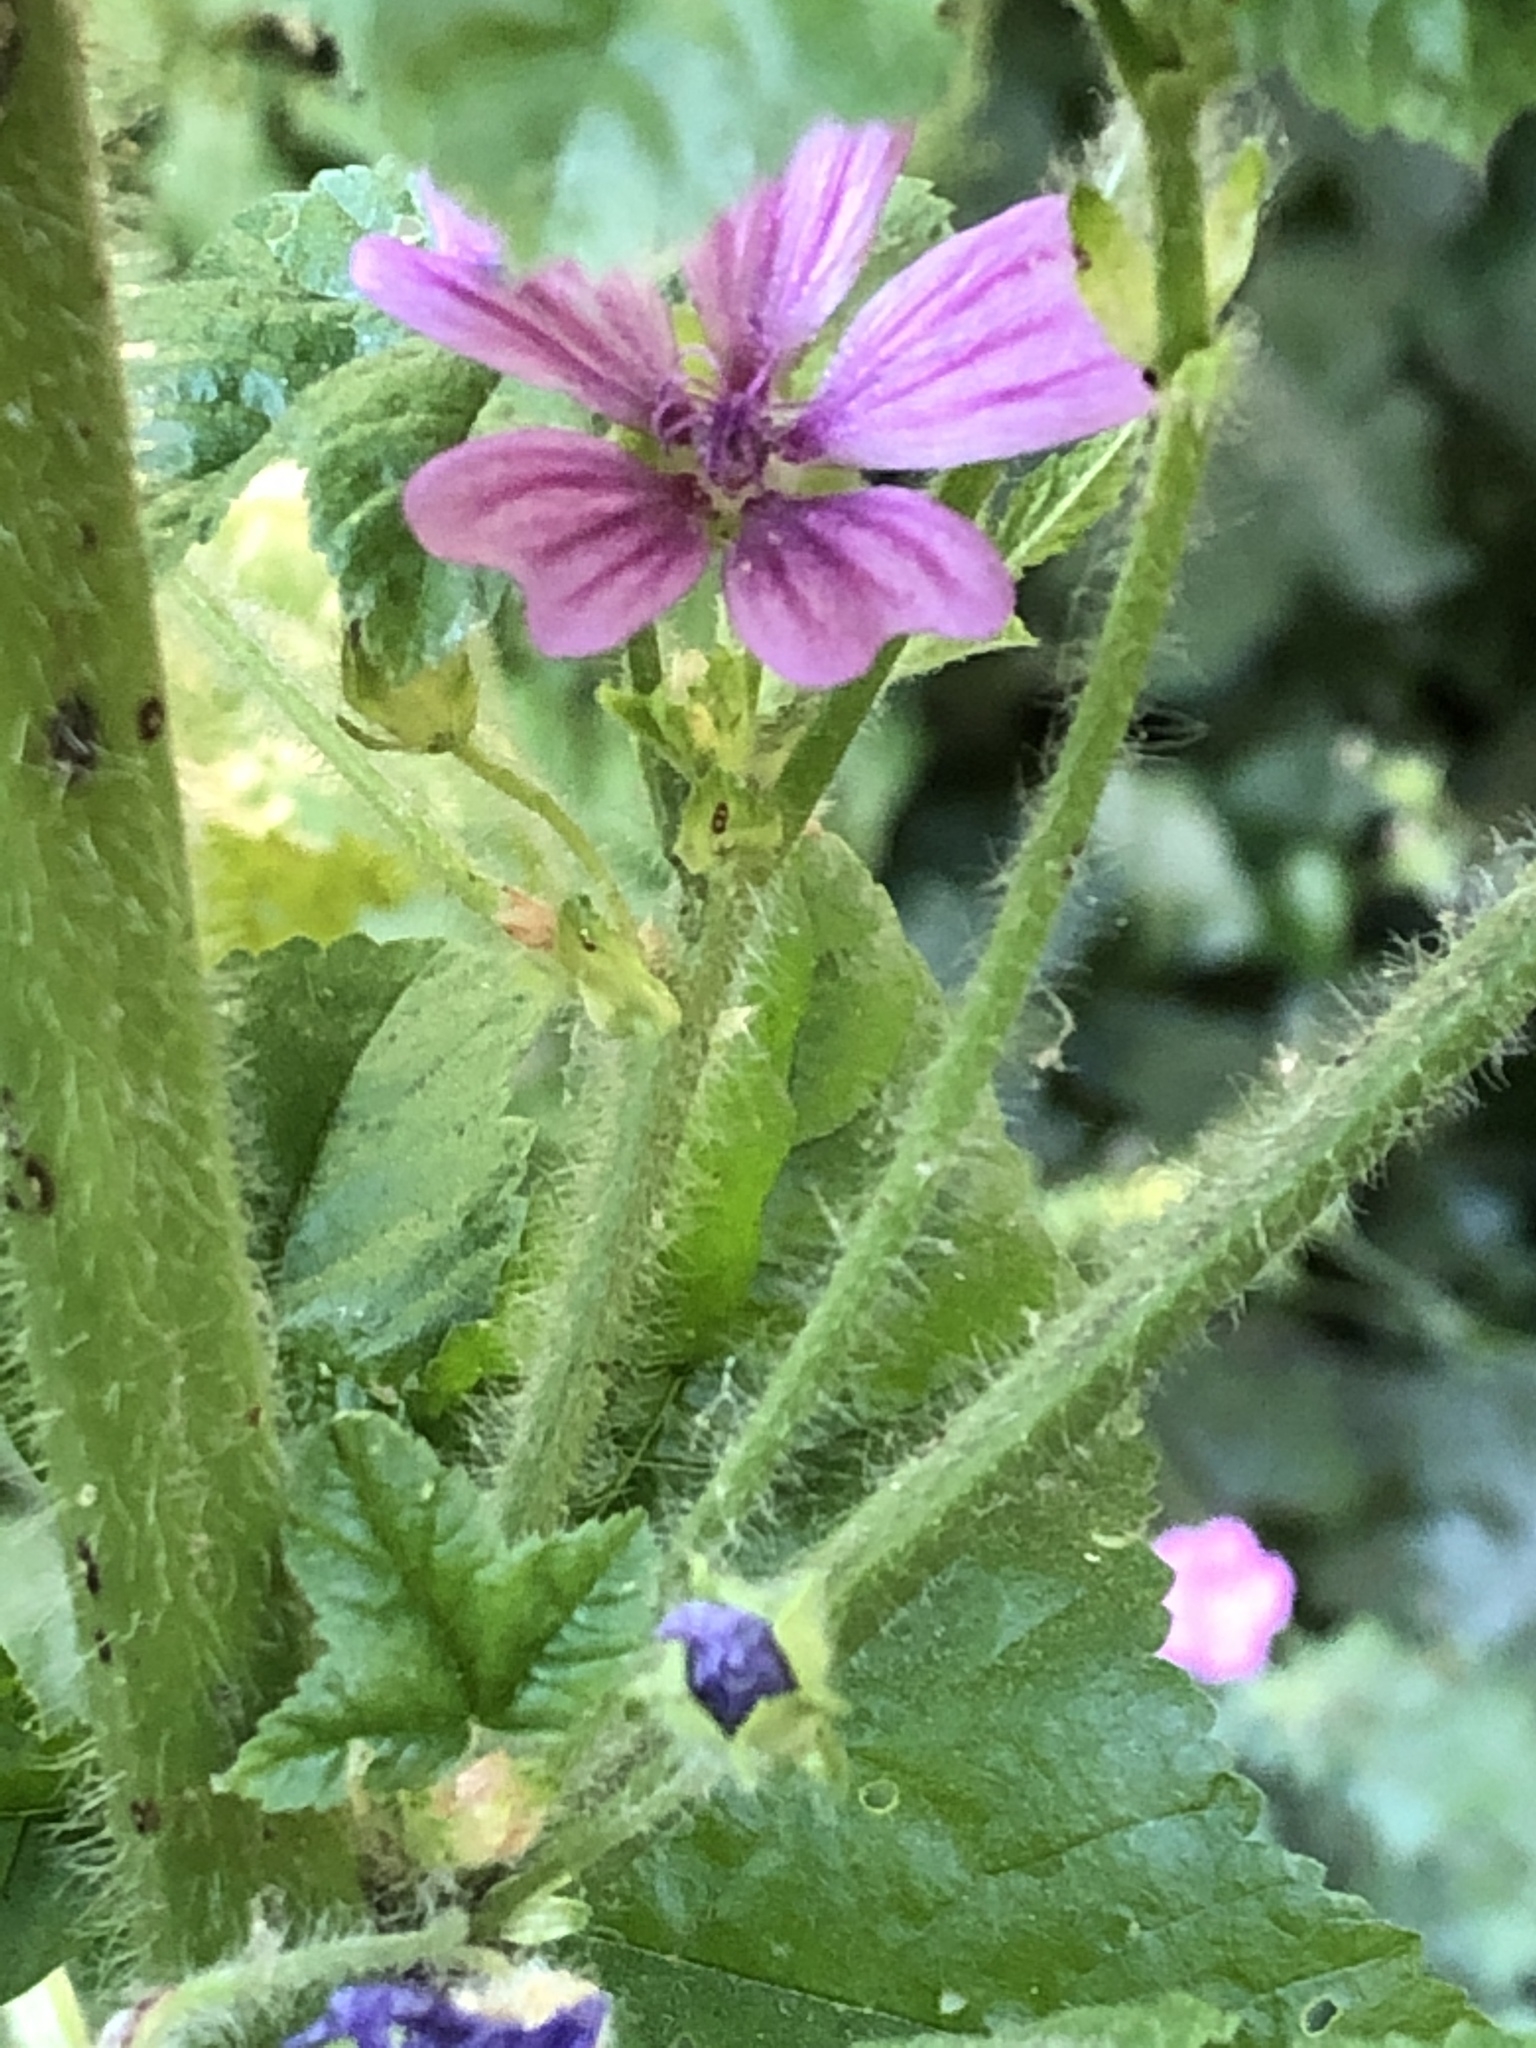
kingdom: Plantae
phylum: Tracheophyta
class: Magnoliopsida
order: Malvales
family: Malvaceae
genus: Malva
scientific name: Malva sylvestris
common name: Common mallow
